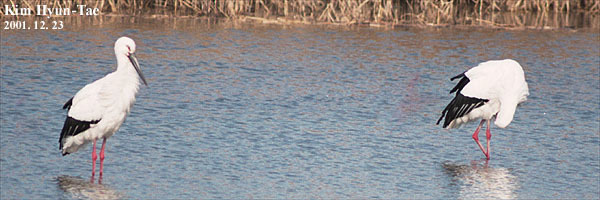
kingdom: Animalia
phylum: Chordata
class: Aves
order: Ciconiiformes
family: Ciconiidae
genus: Ciconia
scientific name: Ciconia boyciana
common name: Oriental stork
